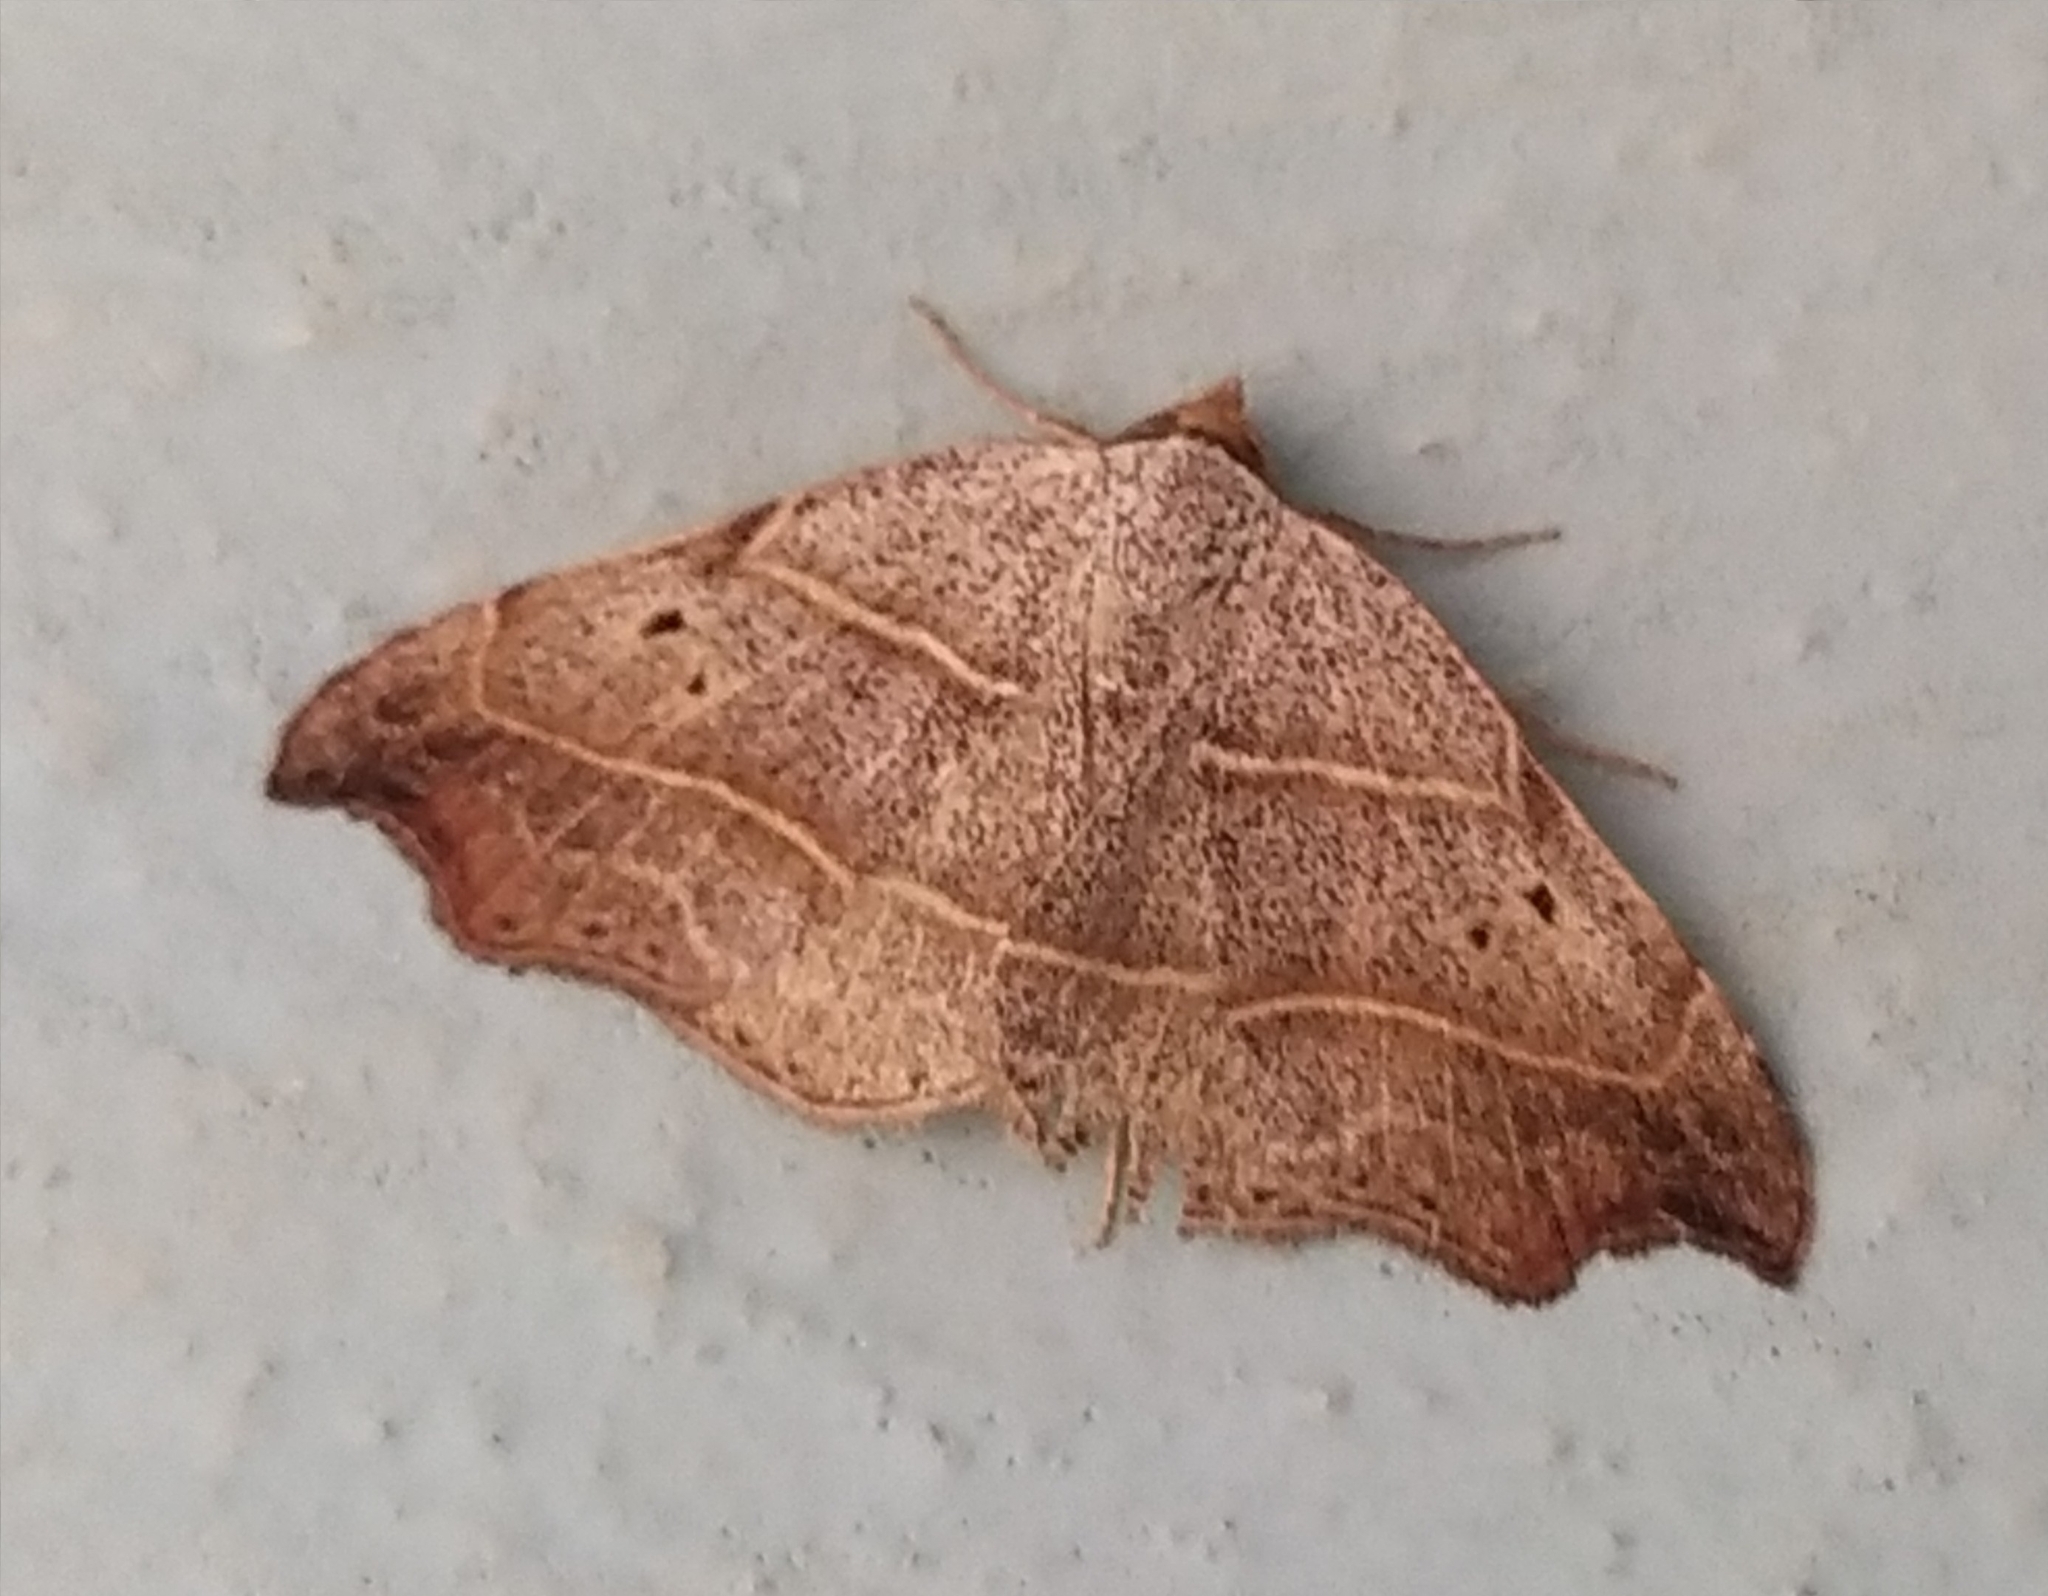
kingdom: Animalia
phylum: Arthropoda
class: Insecta
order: Lepidoptera
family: Erebidae
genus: Laspeyria
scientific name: Laspeyria flexula
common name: Beautiful hook-tip
